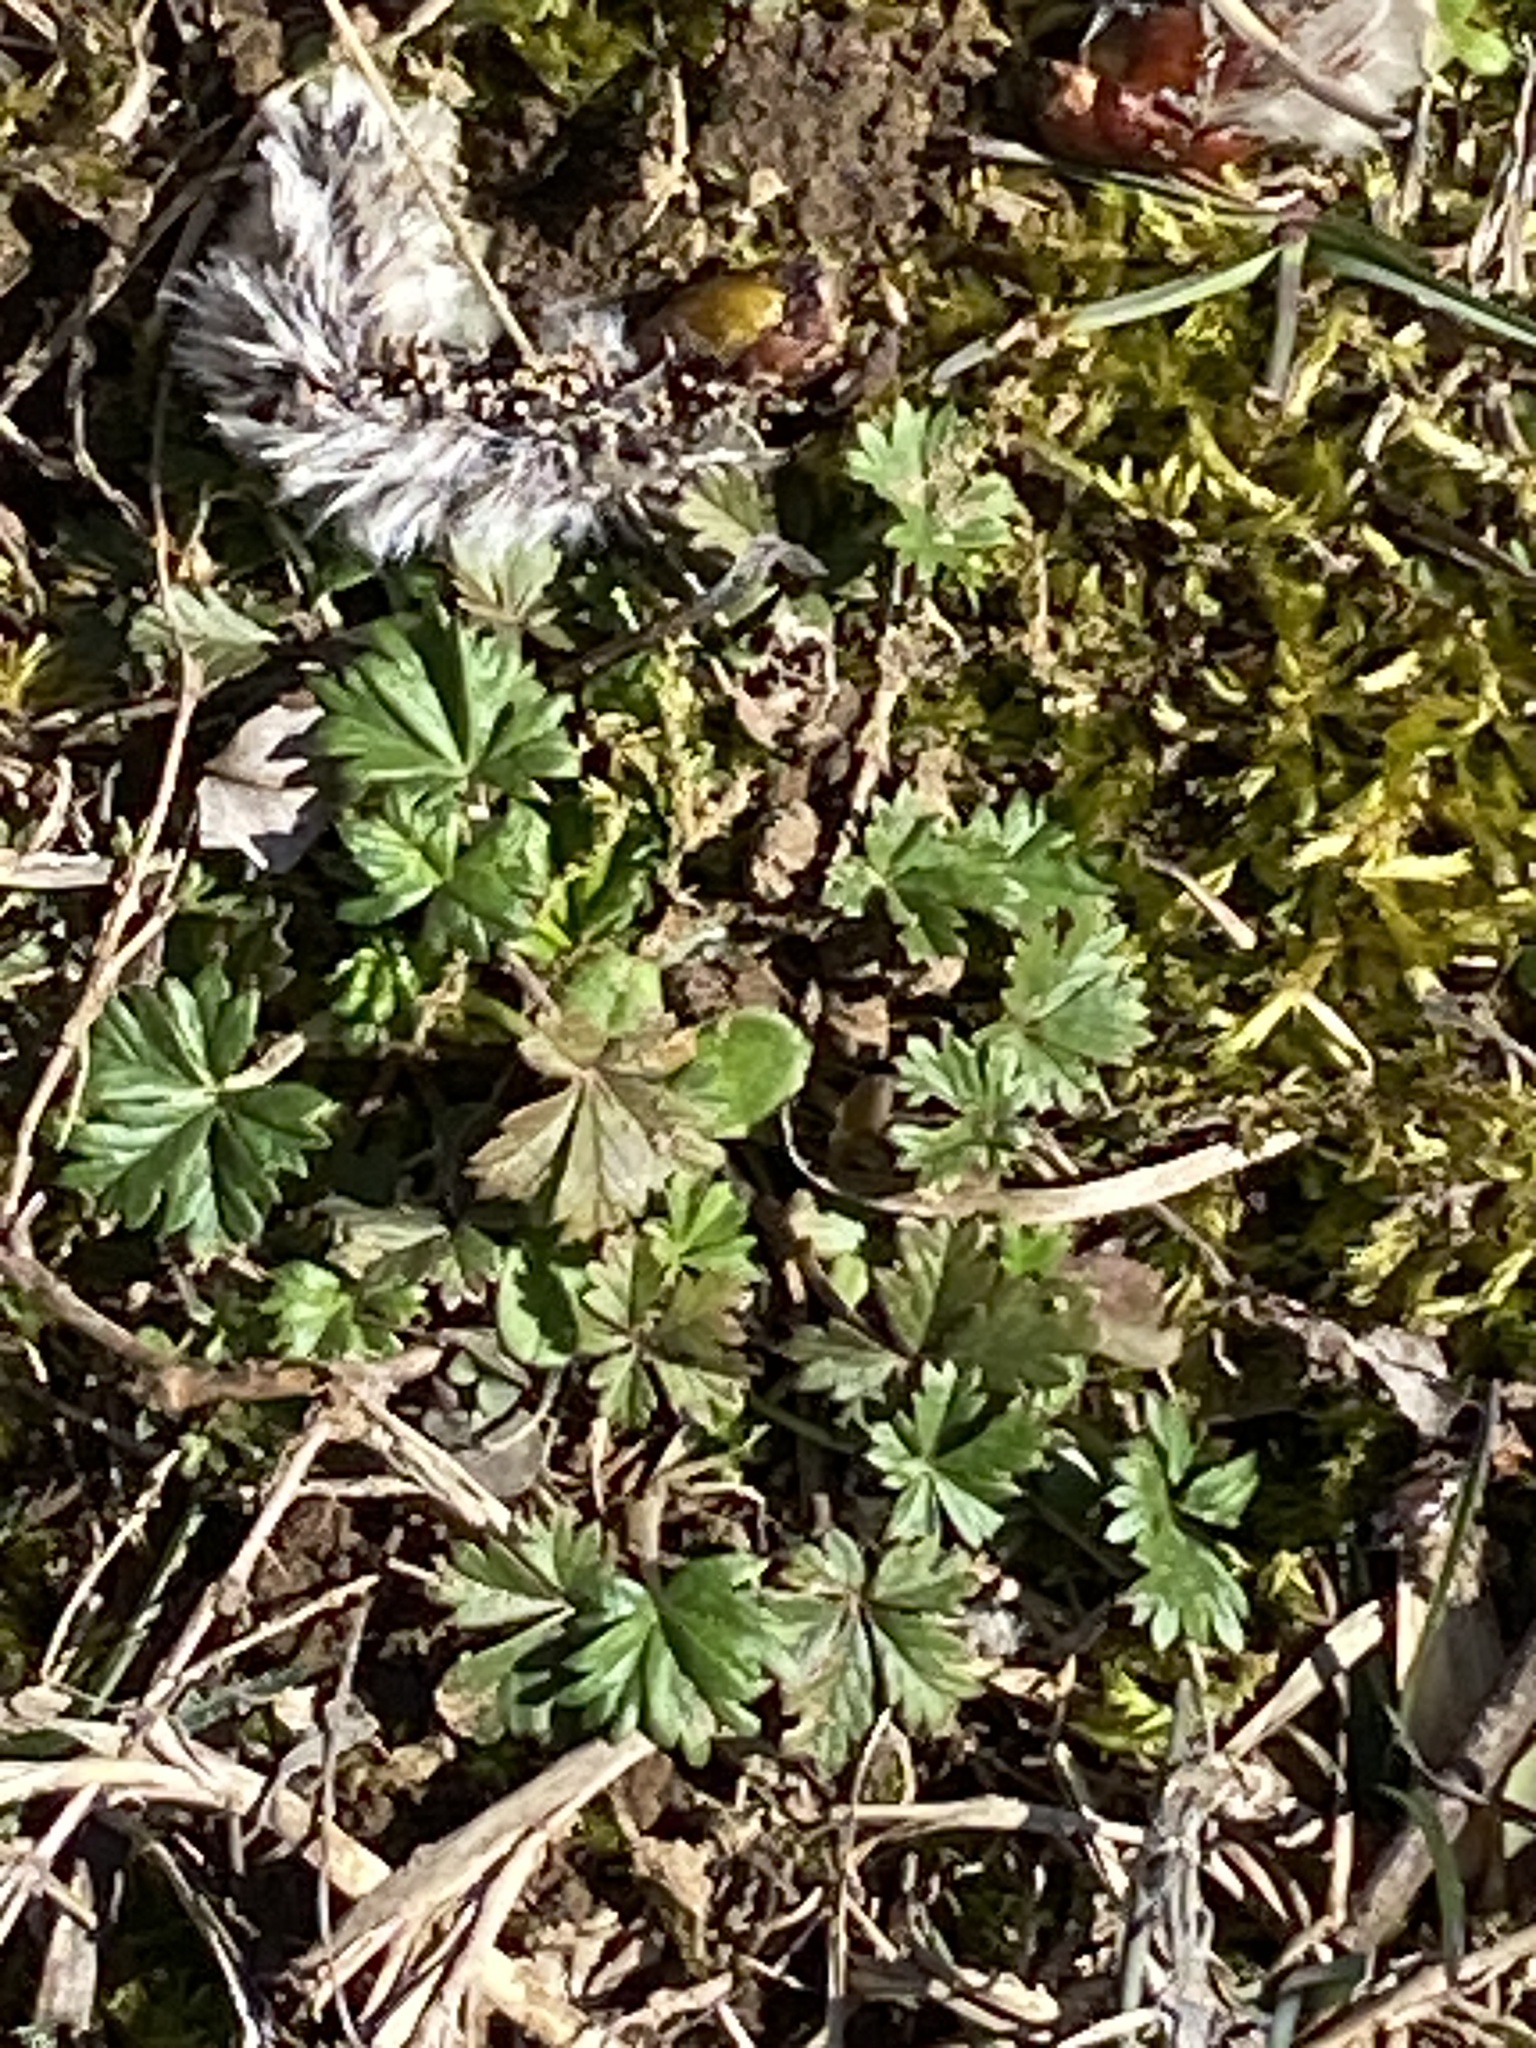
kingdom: Plantae
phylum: Tracheophyta
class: Magnoliopsida
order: Rosales
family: Rosaceae
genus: Potentilla
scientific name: Potentilla argentea
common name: Hoary cinquefoil
